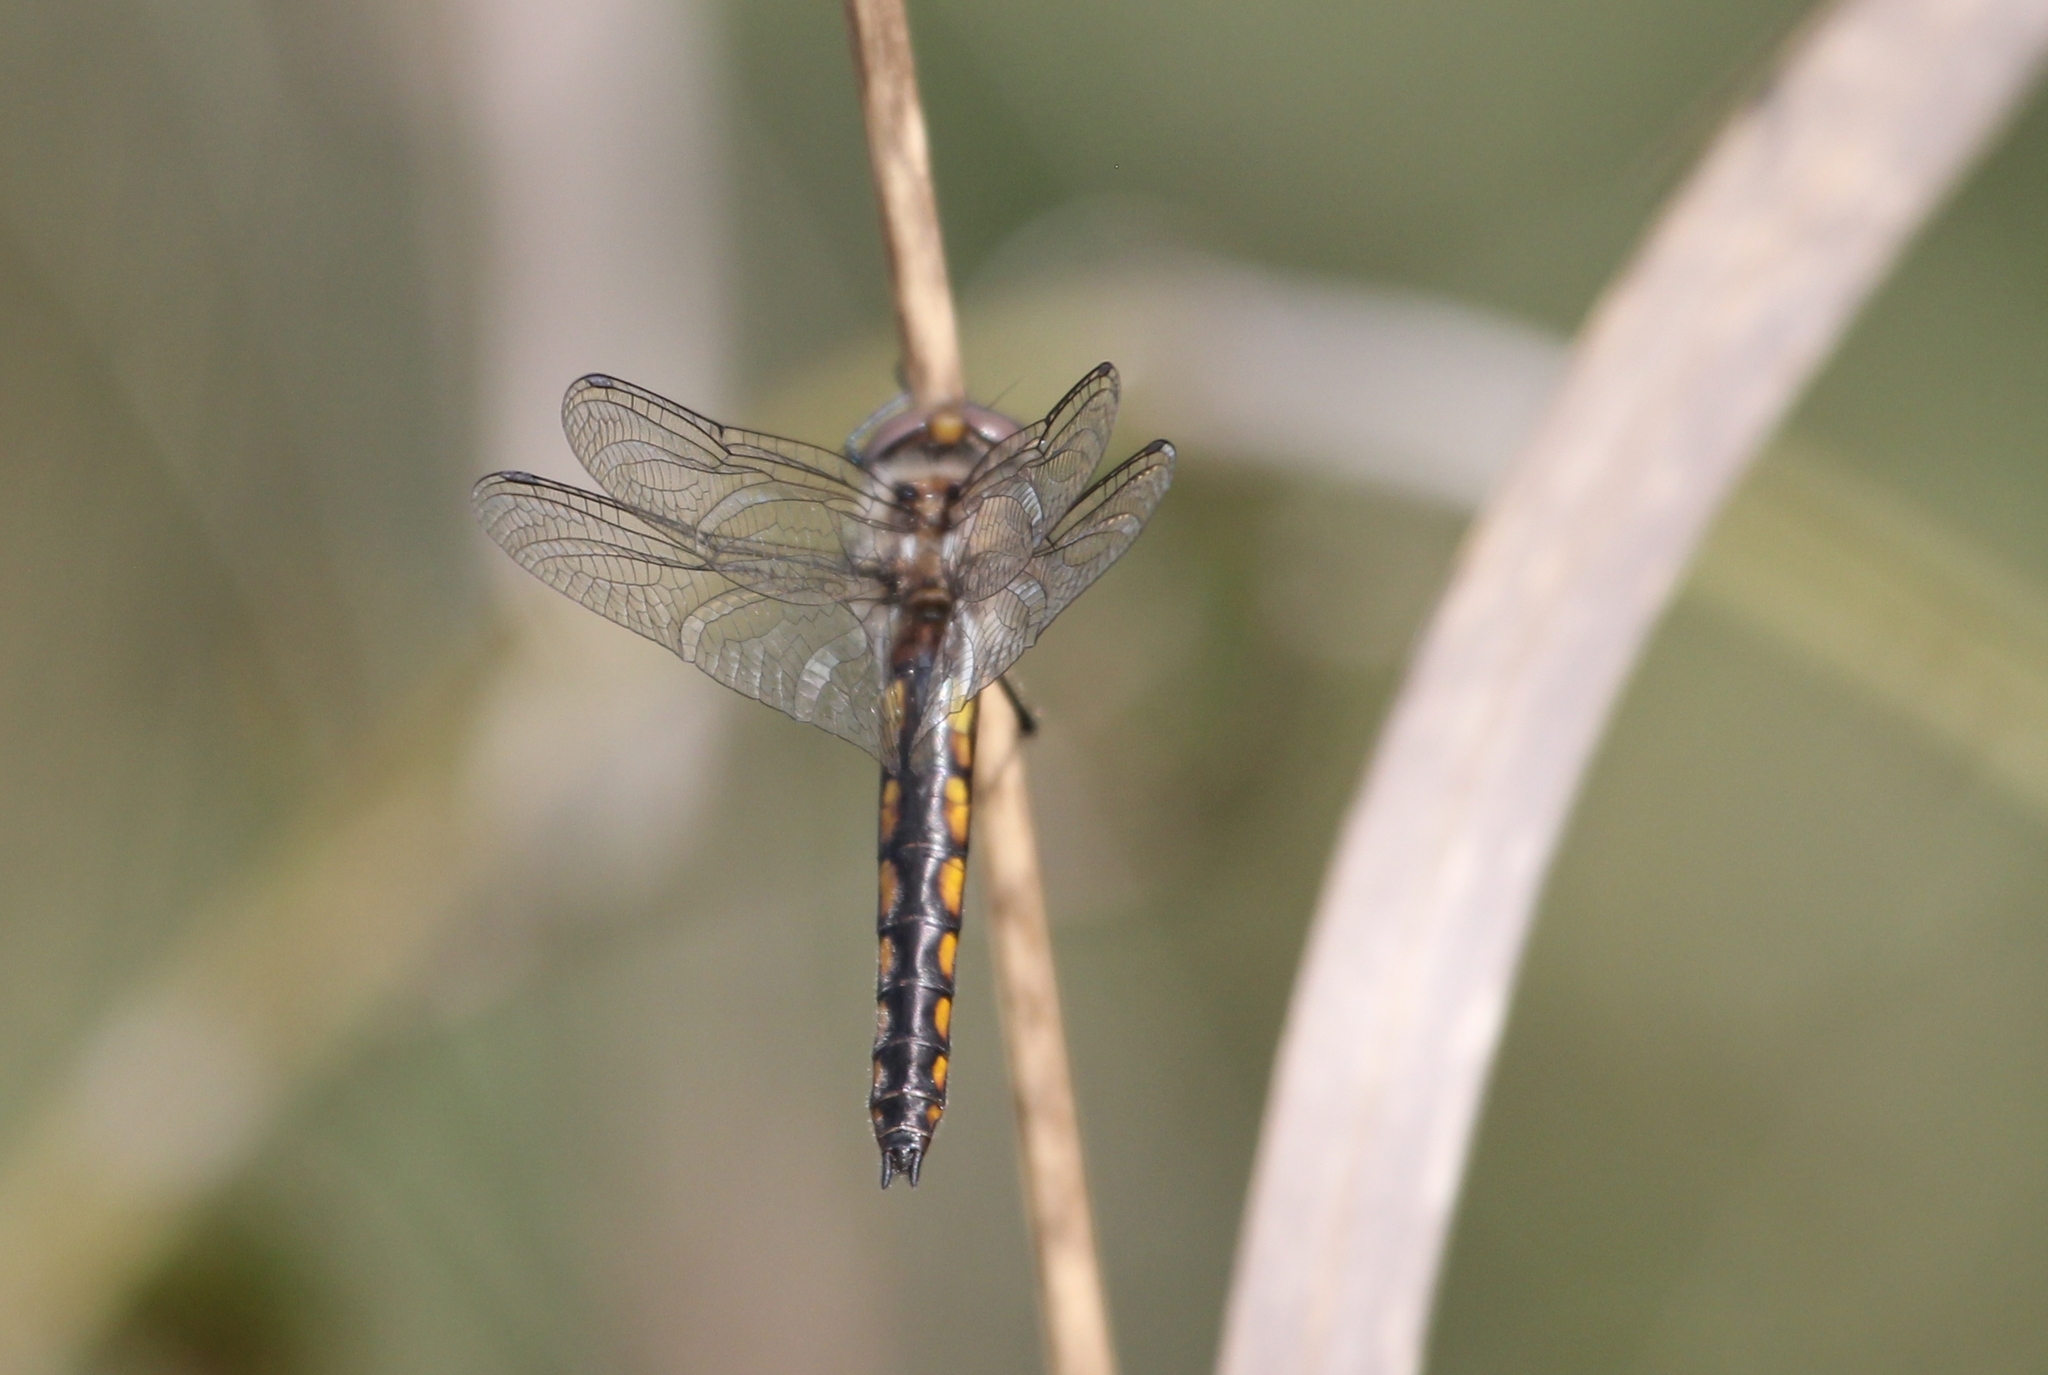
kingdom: Animalia
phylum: Arthropoda
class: Insecta
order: Odonata
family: Corduliidae
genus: Epitheca
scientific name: Epitheca cynosura
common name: Common baskettail
